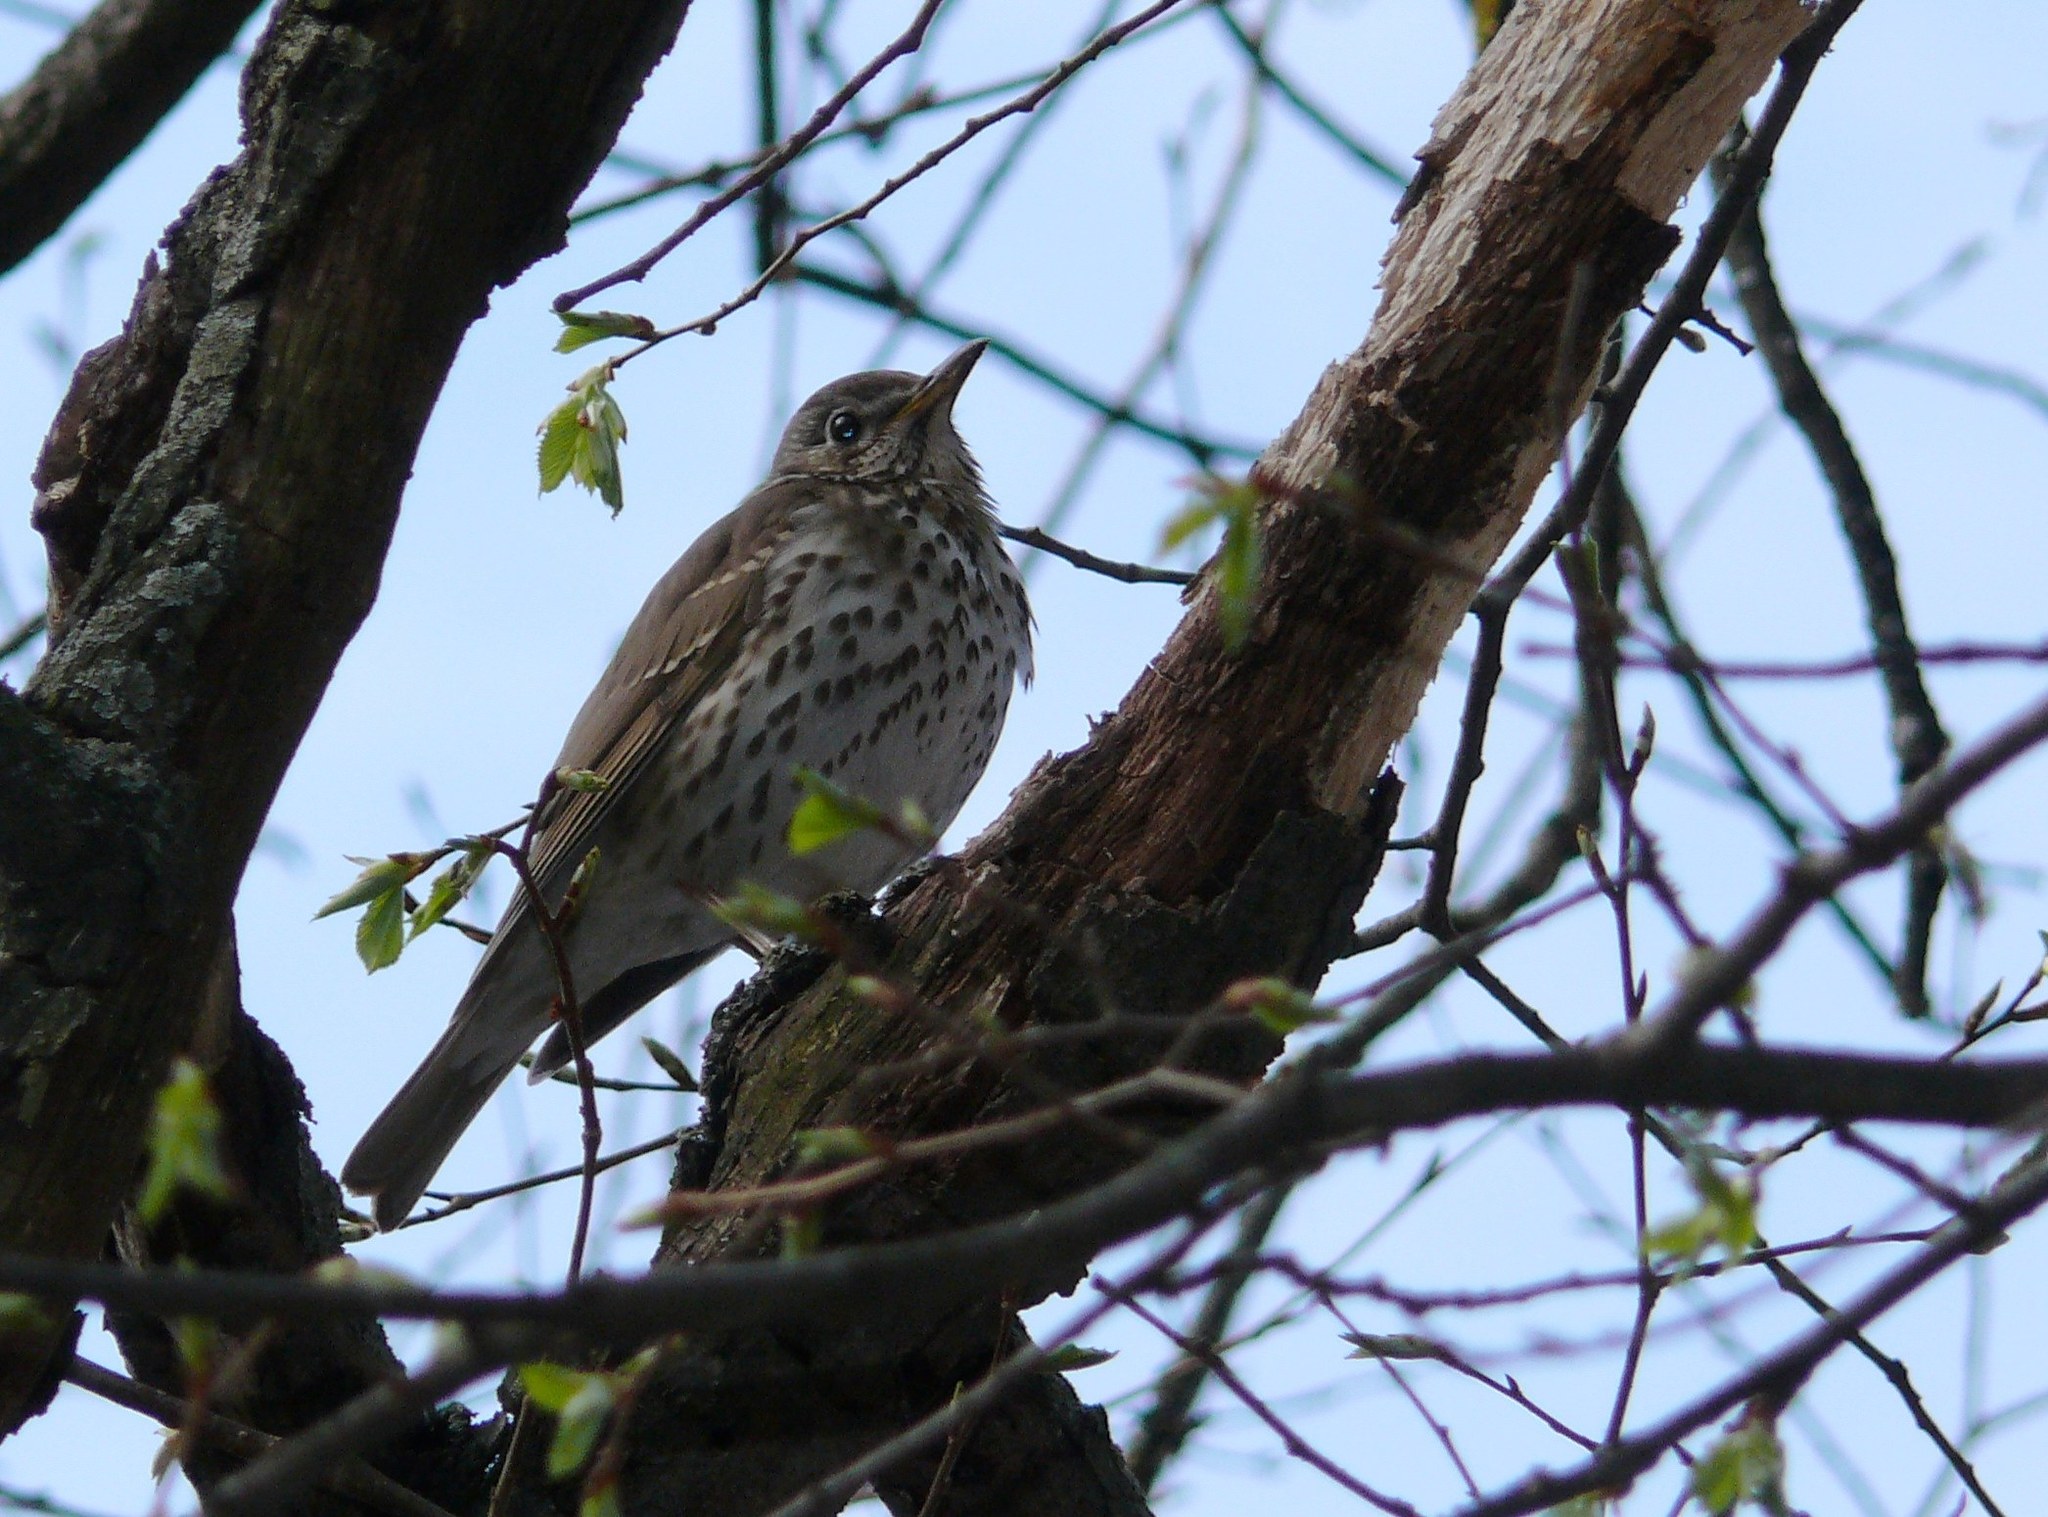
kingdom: Animalia
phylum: Chordata
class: Aves
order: Passeriformes
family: Turdidae
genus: Turdus
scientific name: Turdus philomelos
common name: Song thrush
